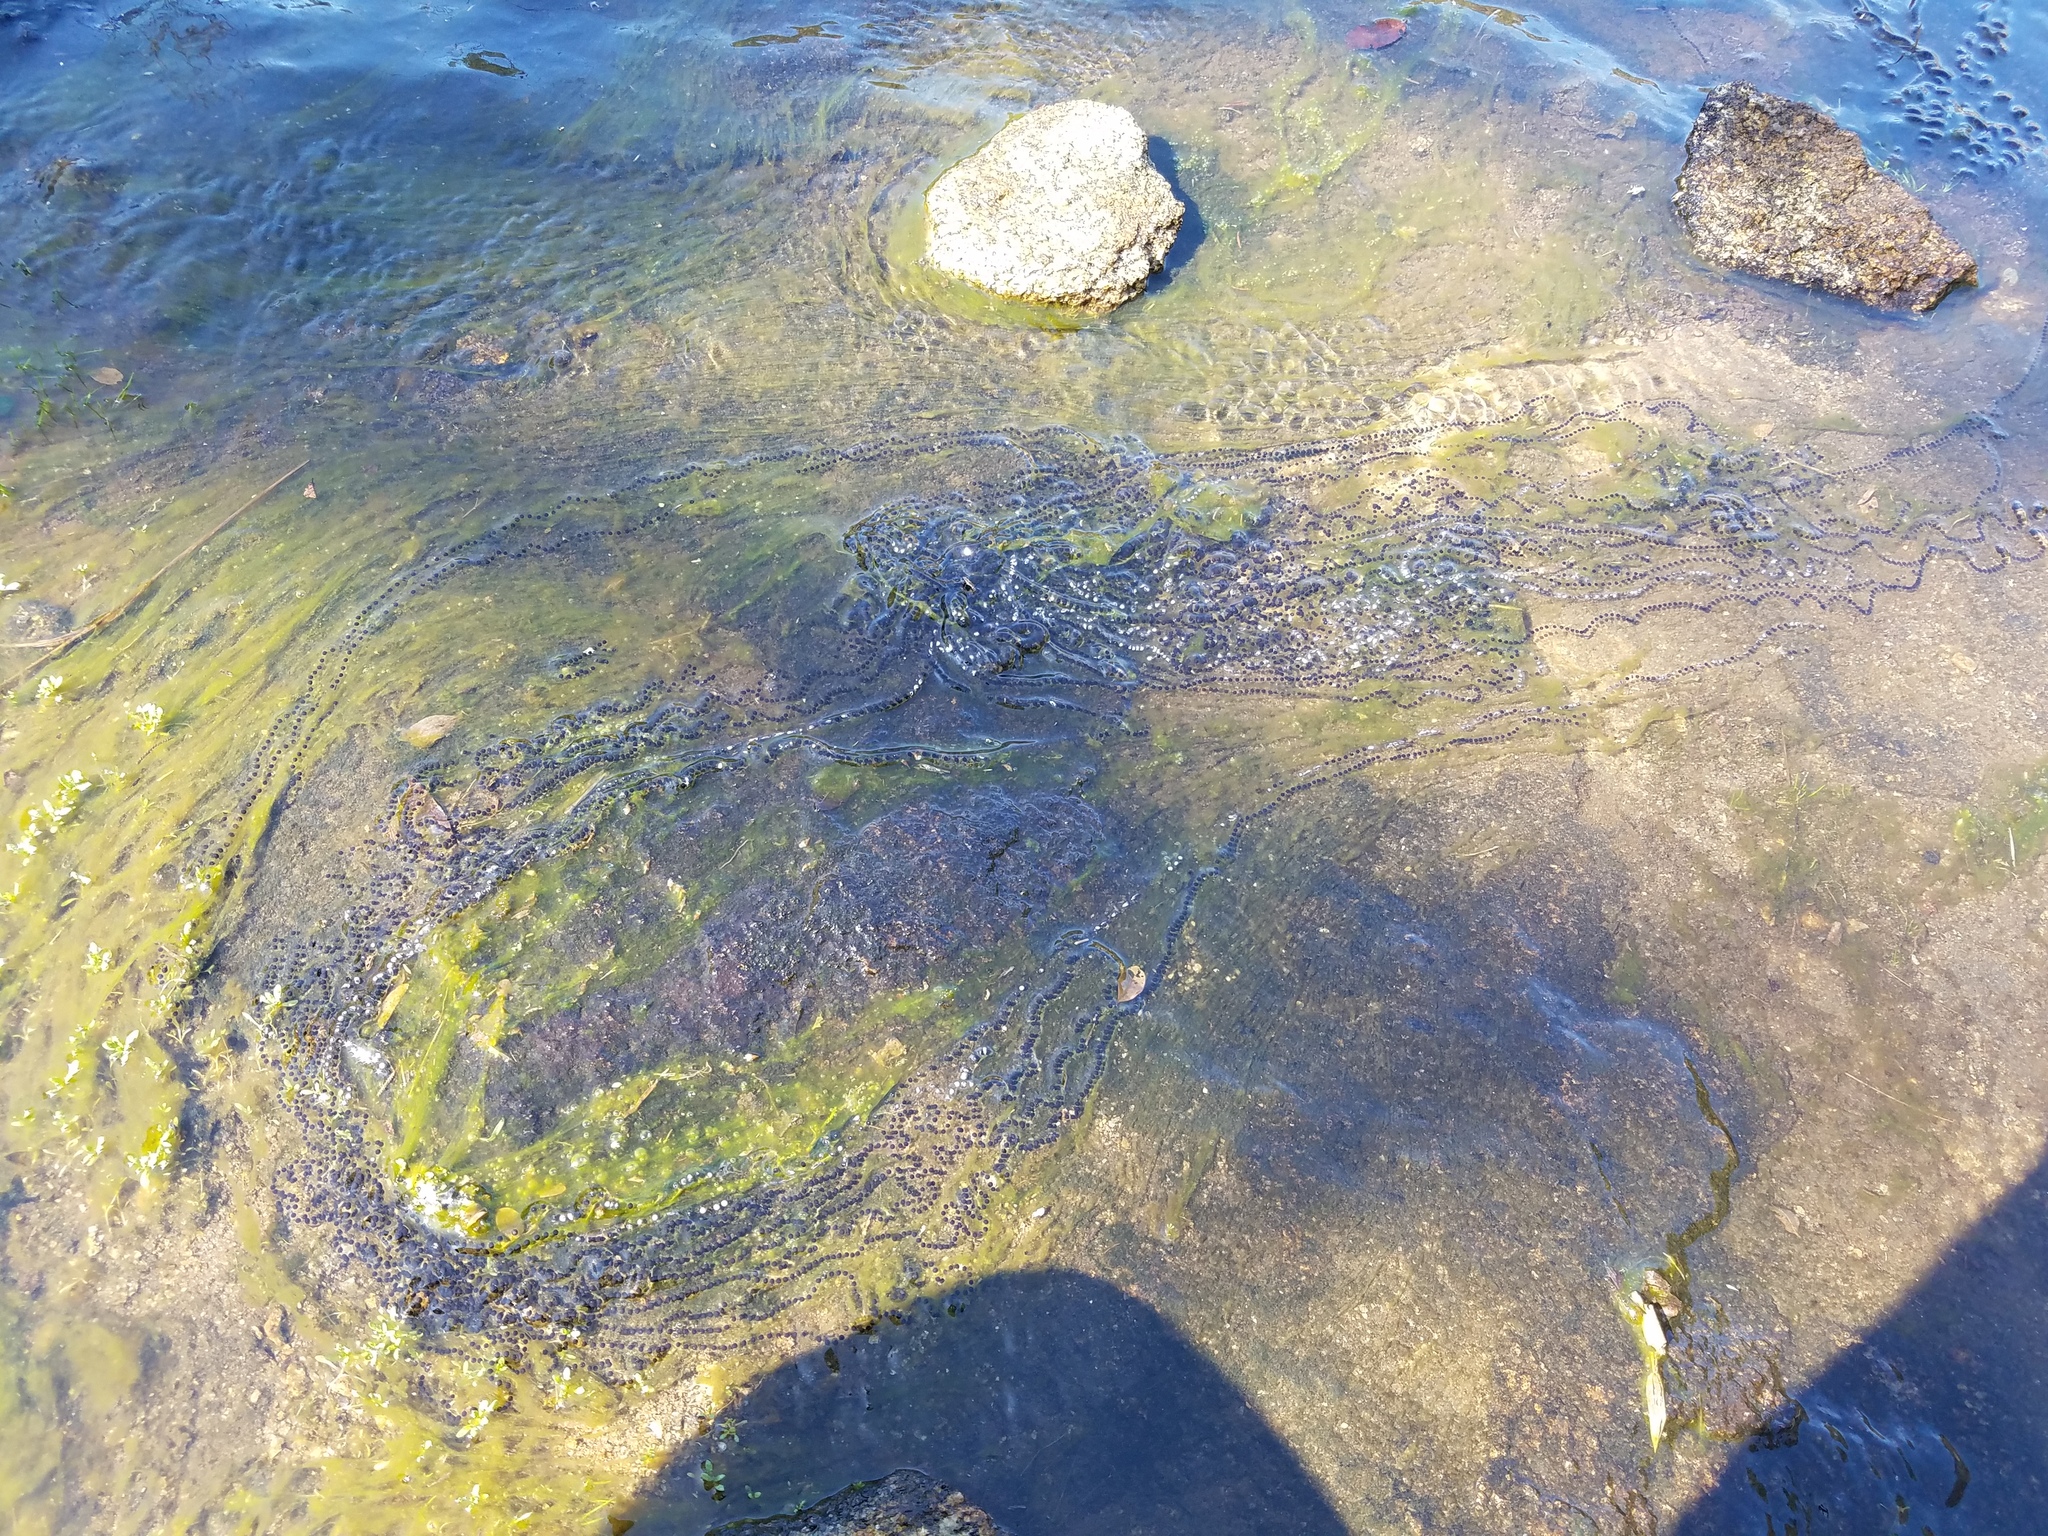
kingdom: Animalia
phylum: Chordata
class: Amphibia
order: Anura
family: Bufonidae
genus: Anaxyrus
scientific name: Anaxyrus americanus
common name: American toad
